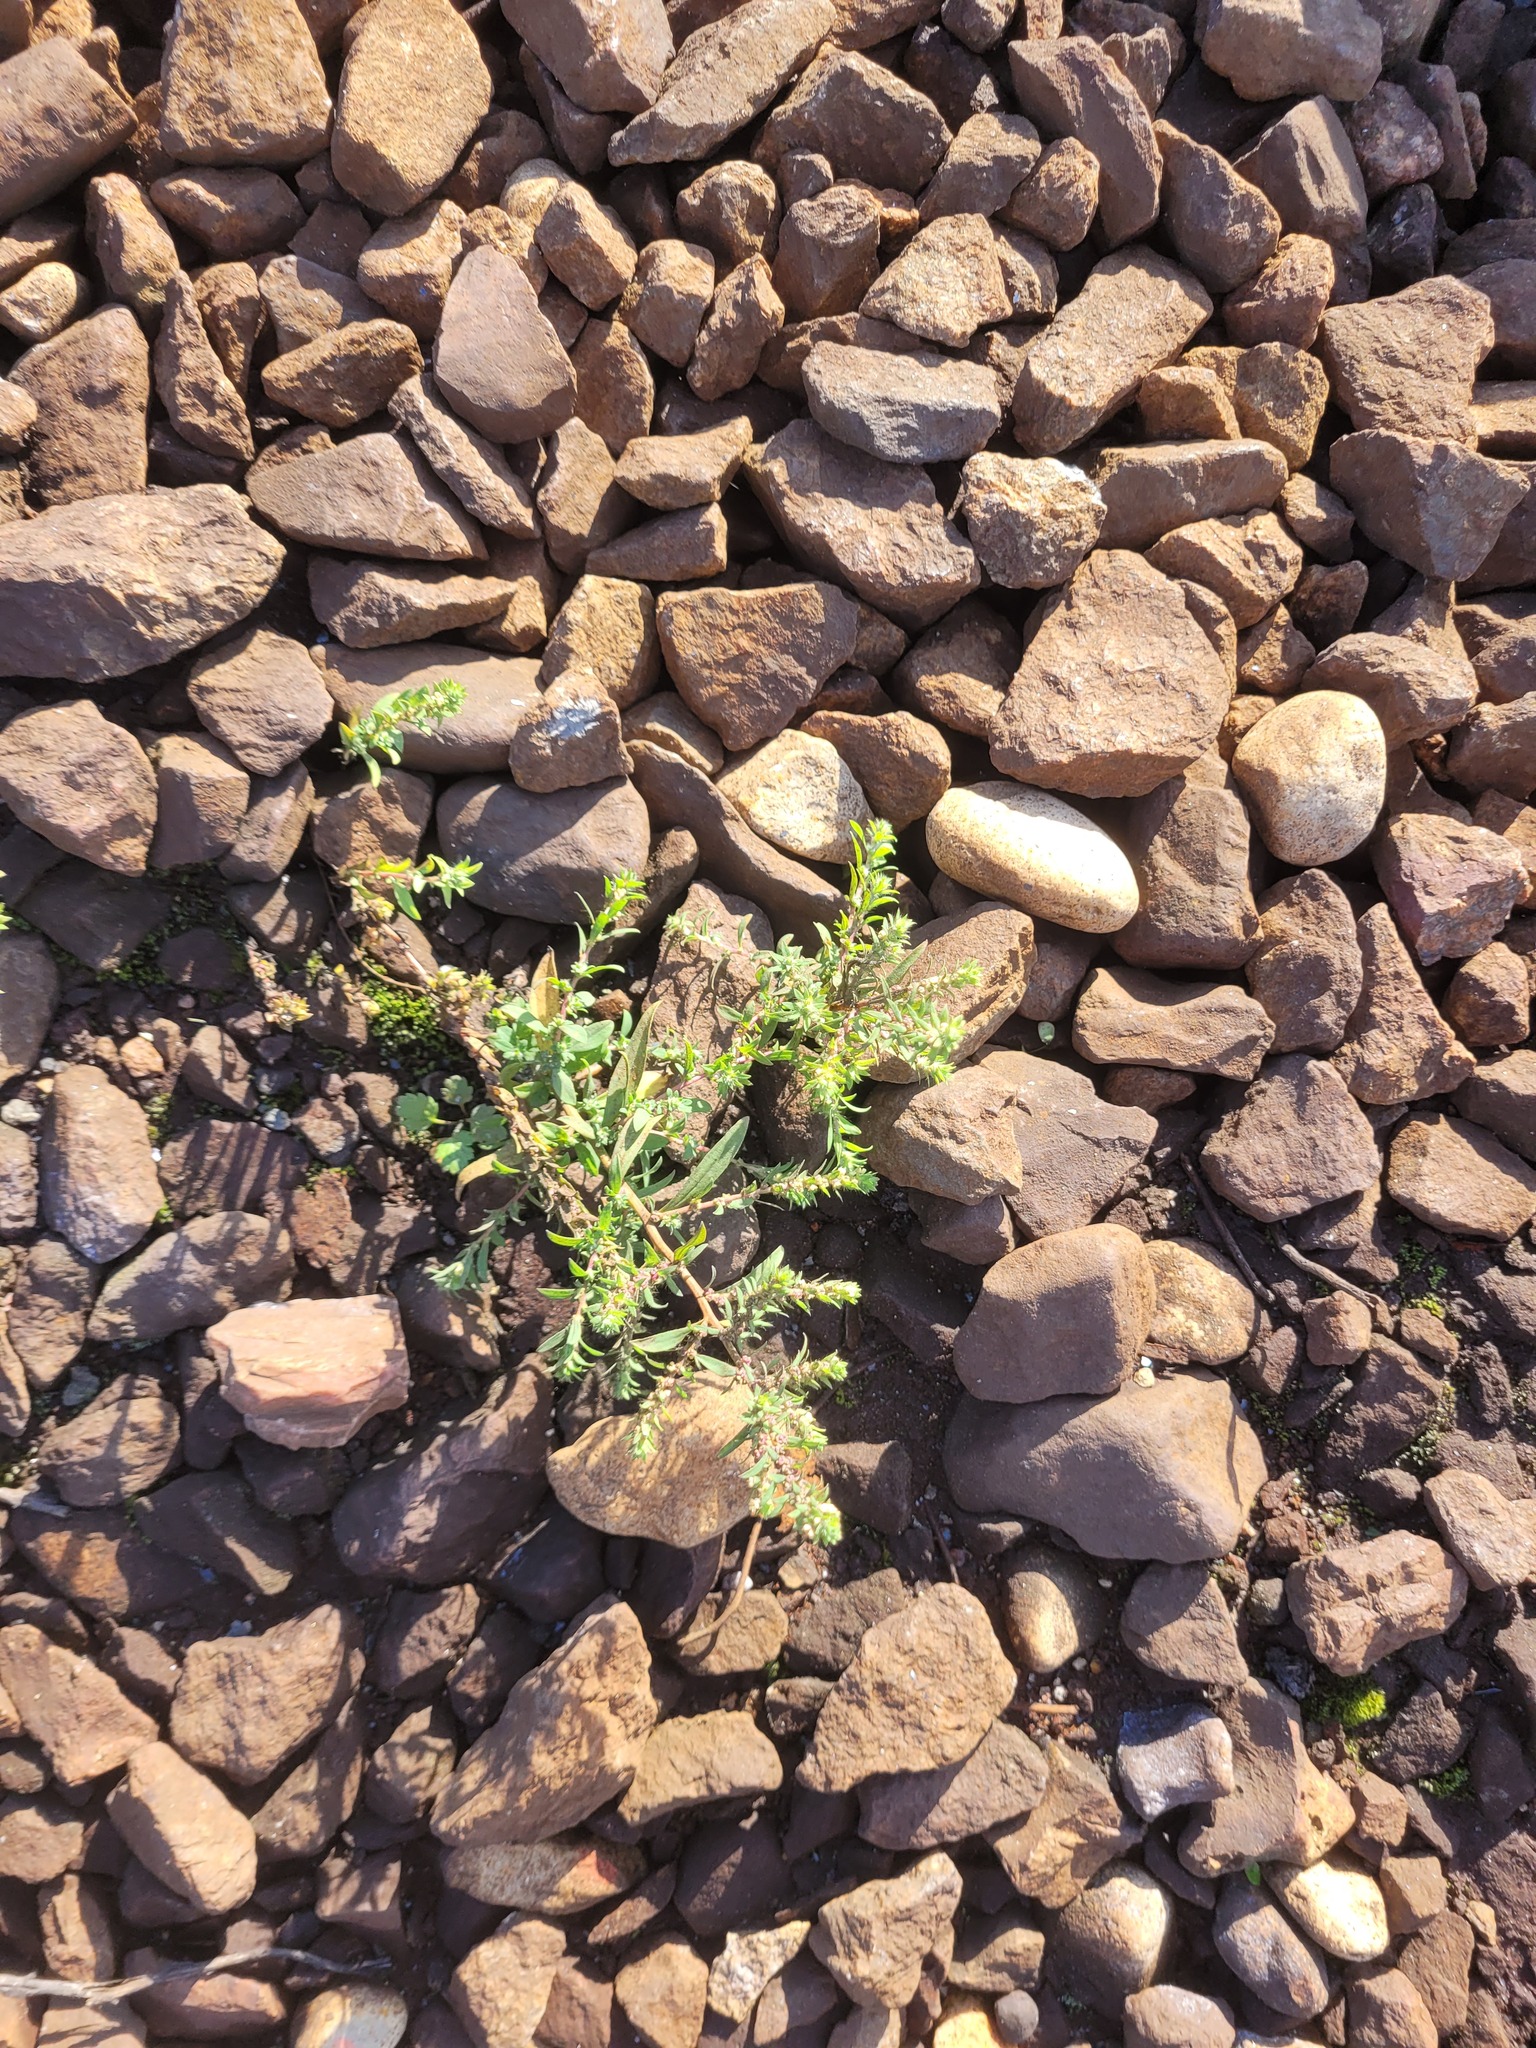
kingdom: Plantae
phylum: Tracheophyta
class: Magnoliopsida
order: Caryophyllales
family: Amaranthaceae
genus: Bassia
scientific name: Bassia scoparia
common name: Belvedere
